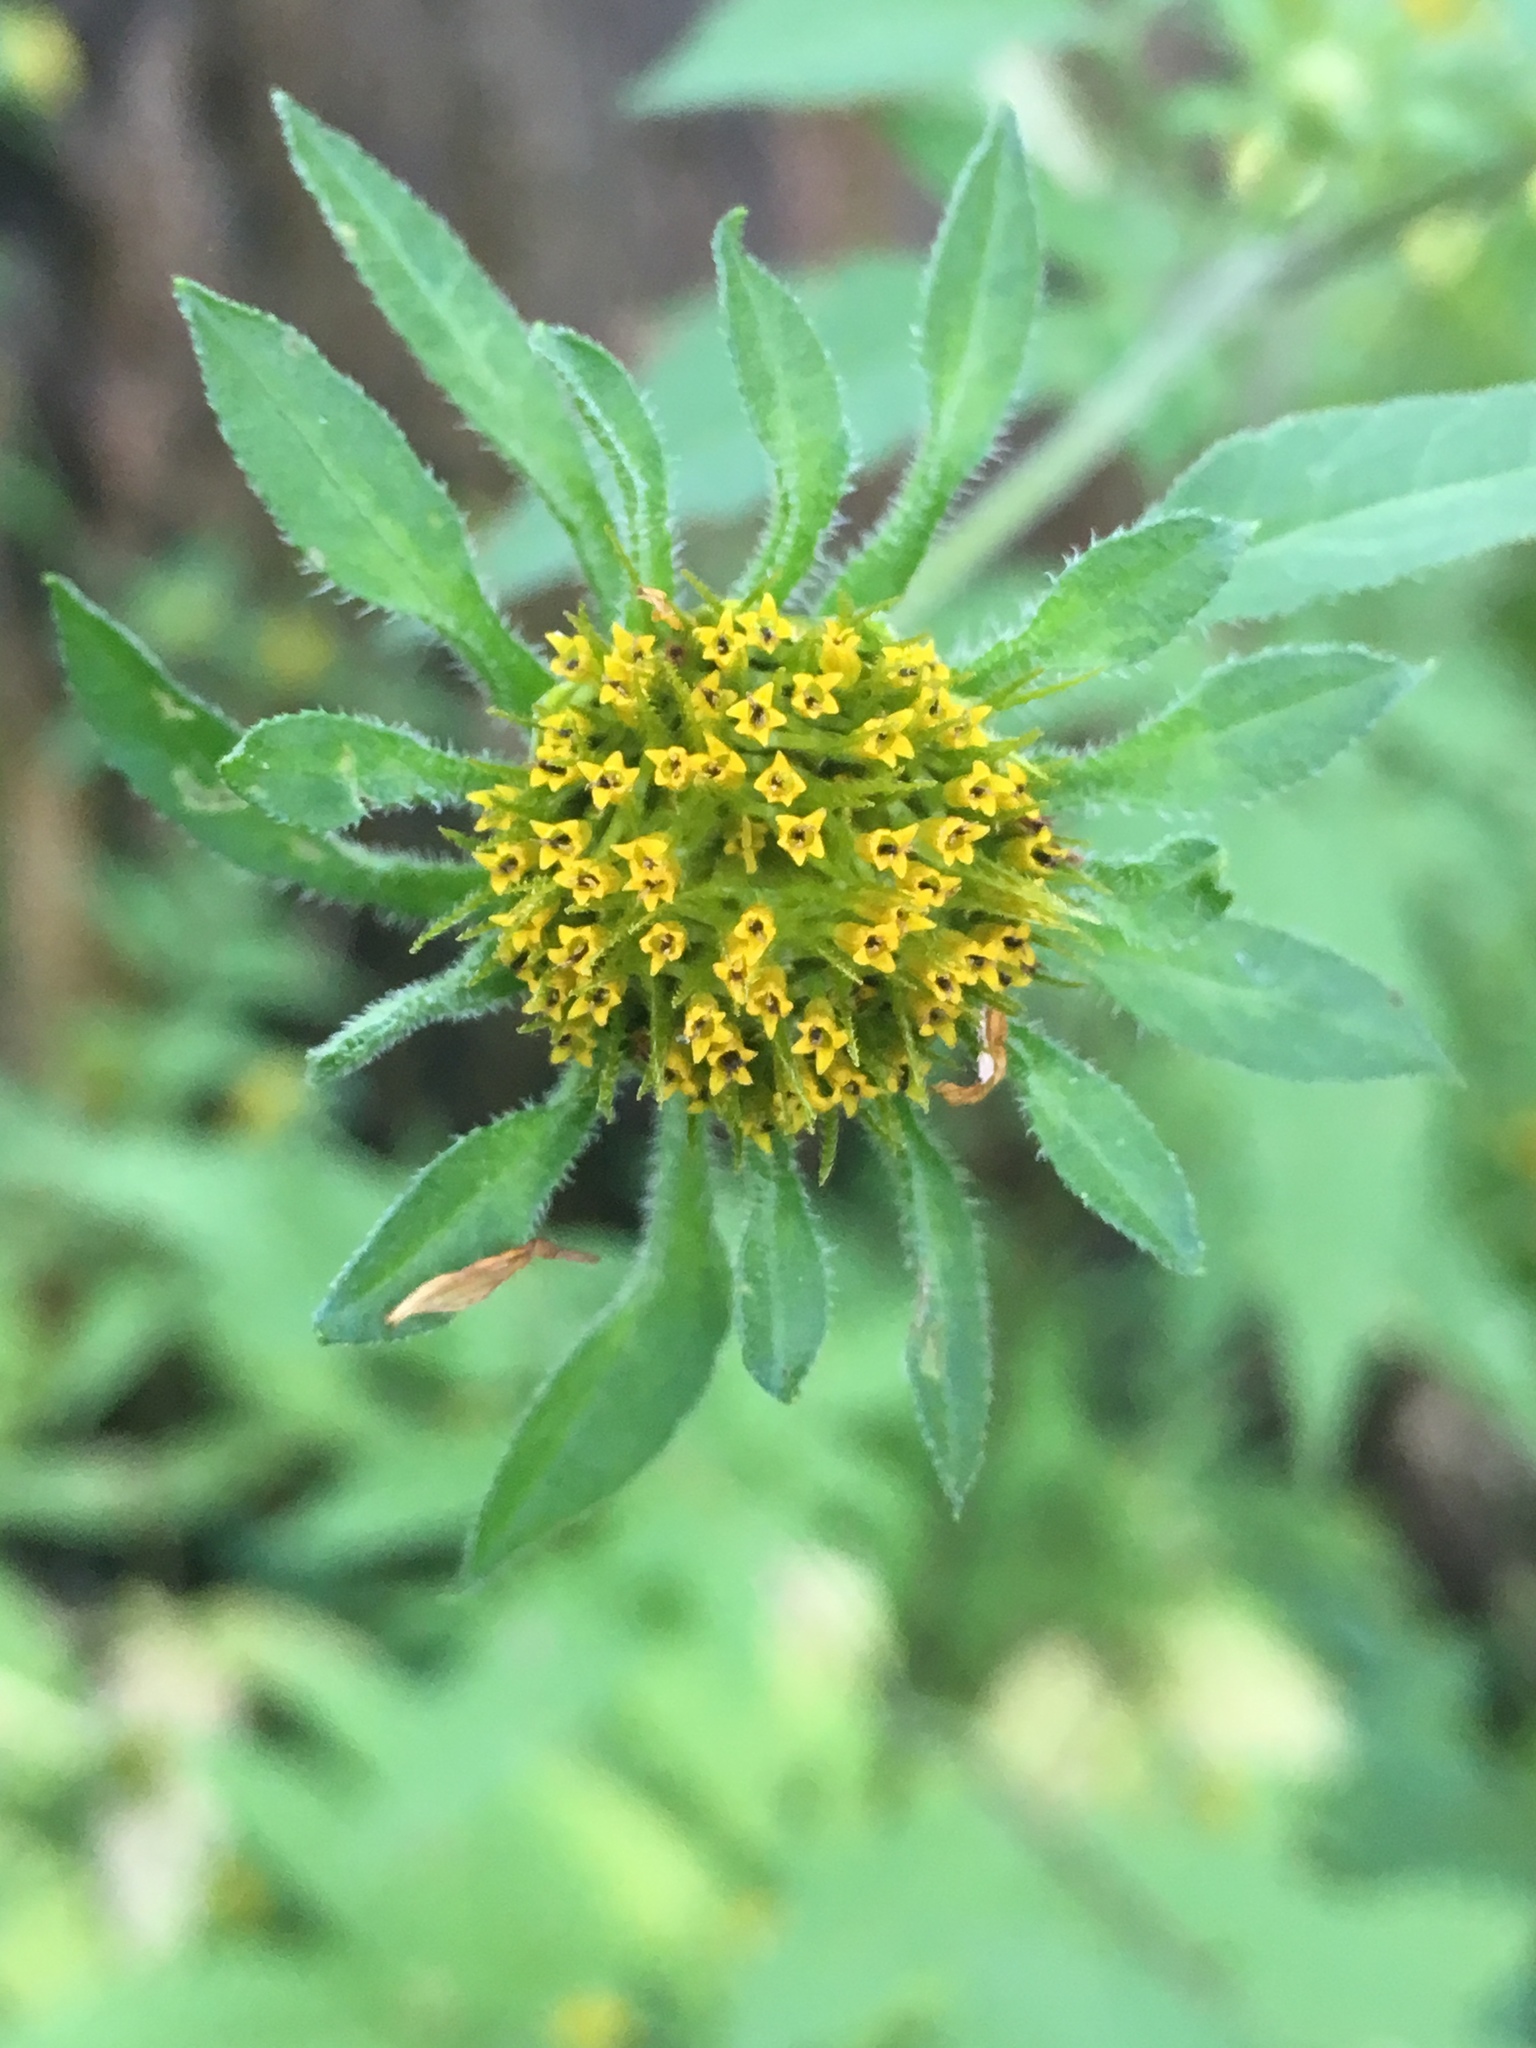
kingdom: Plantae
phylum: Tracheophyta
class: Magnoliopsida
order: Asterales
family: Asteraceae
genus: Bidens
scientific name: Bidens vulgata
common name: Tall beggarticks
